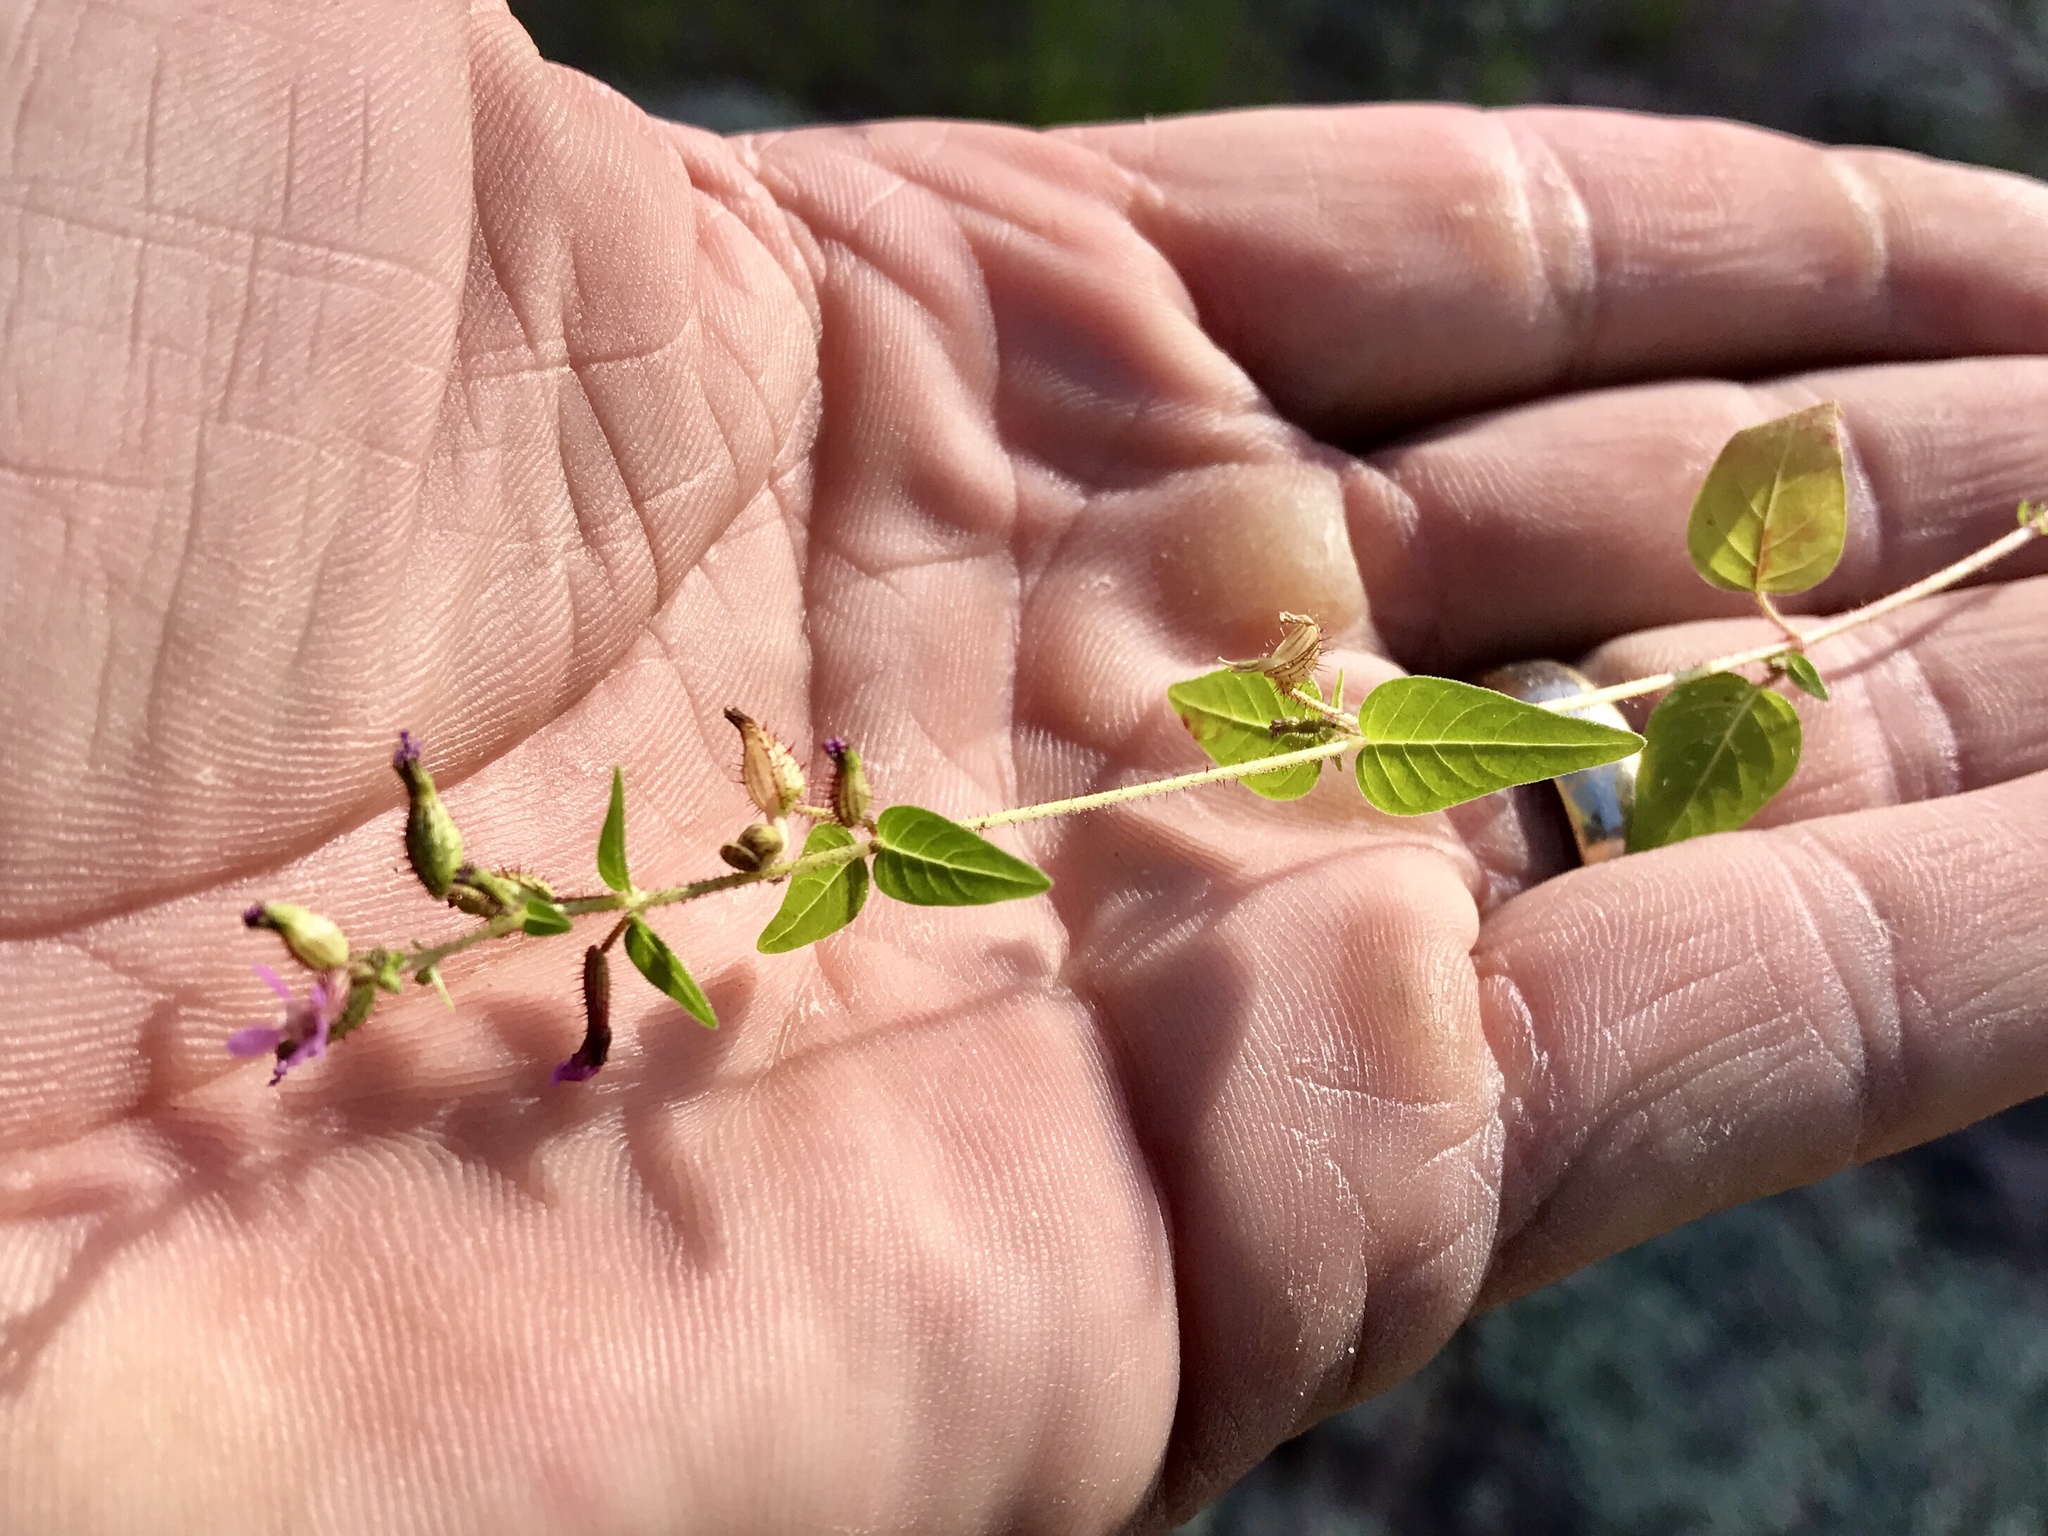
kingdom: Plantae
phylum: Tracheophyta
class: Magnoliopsida
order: Myrtales
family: Lythraceae
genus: Cuphea
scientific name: Cuphea wrightii
